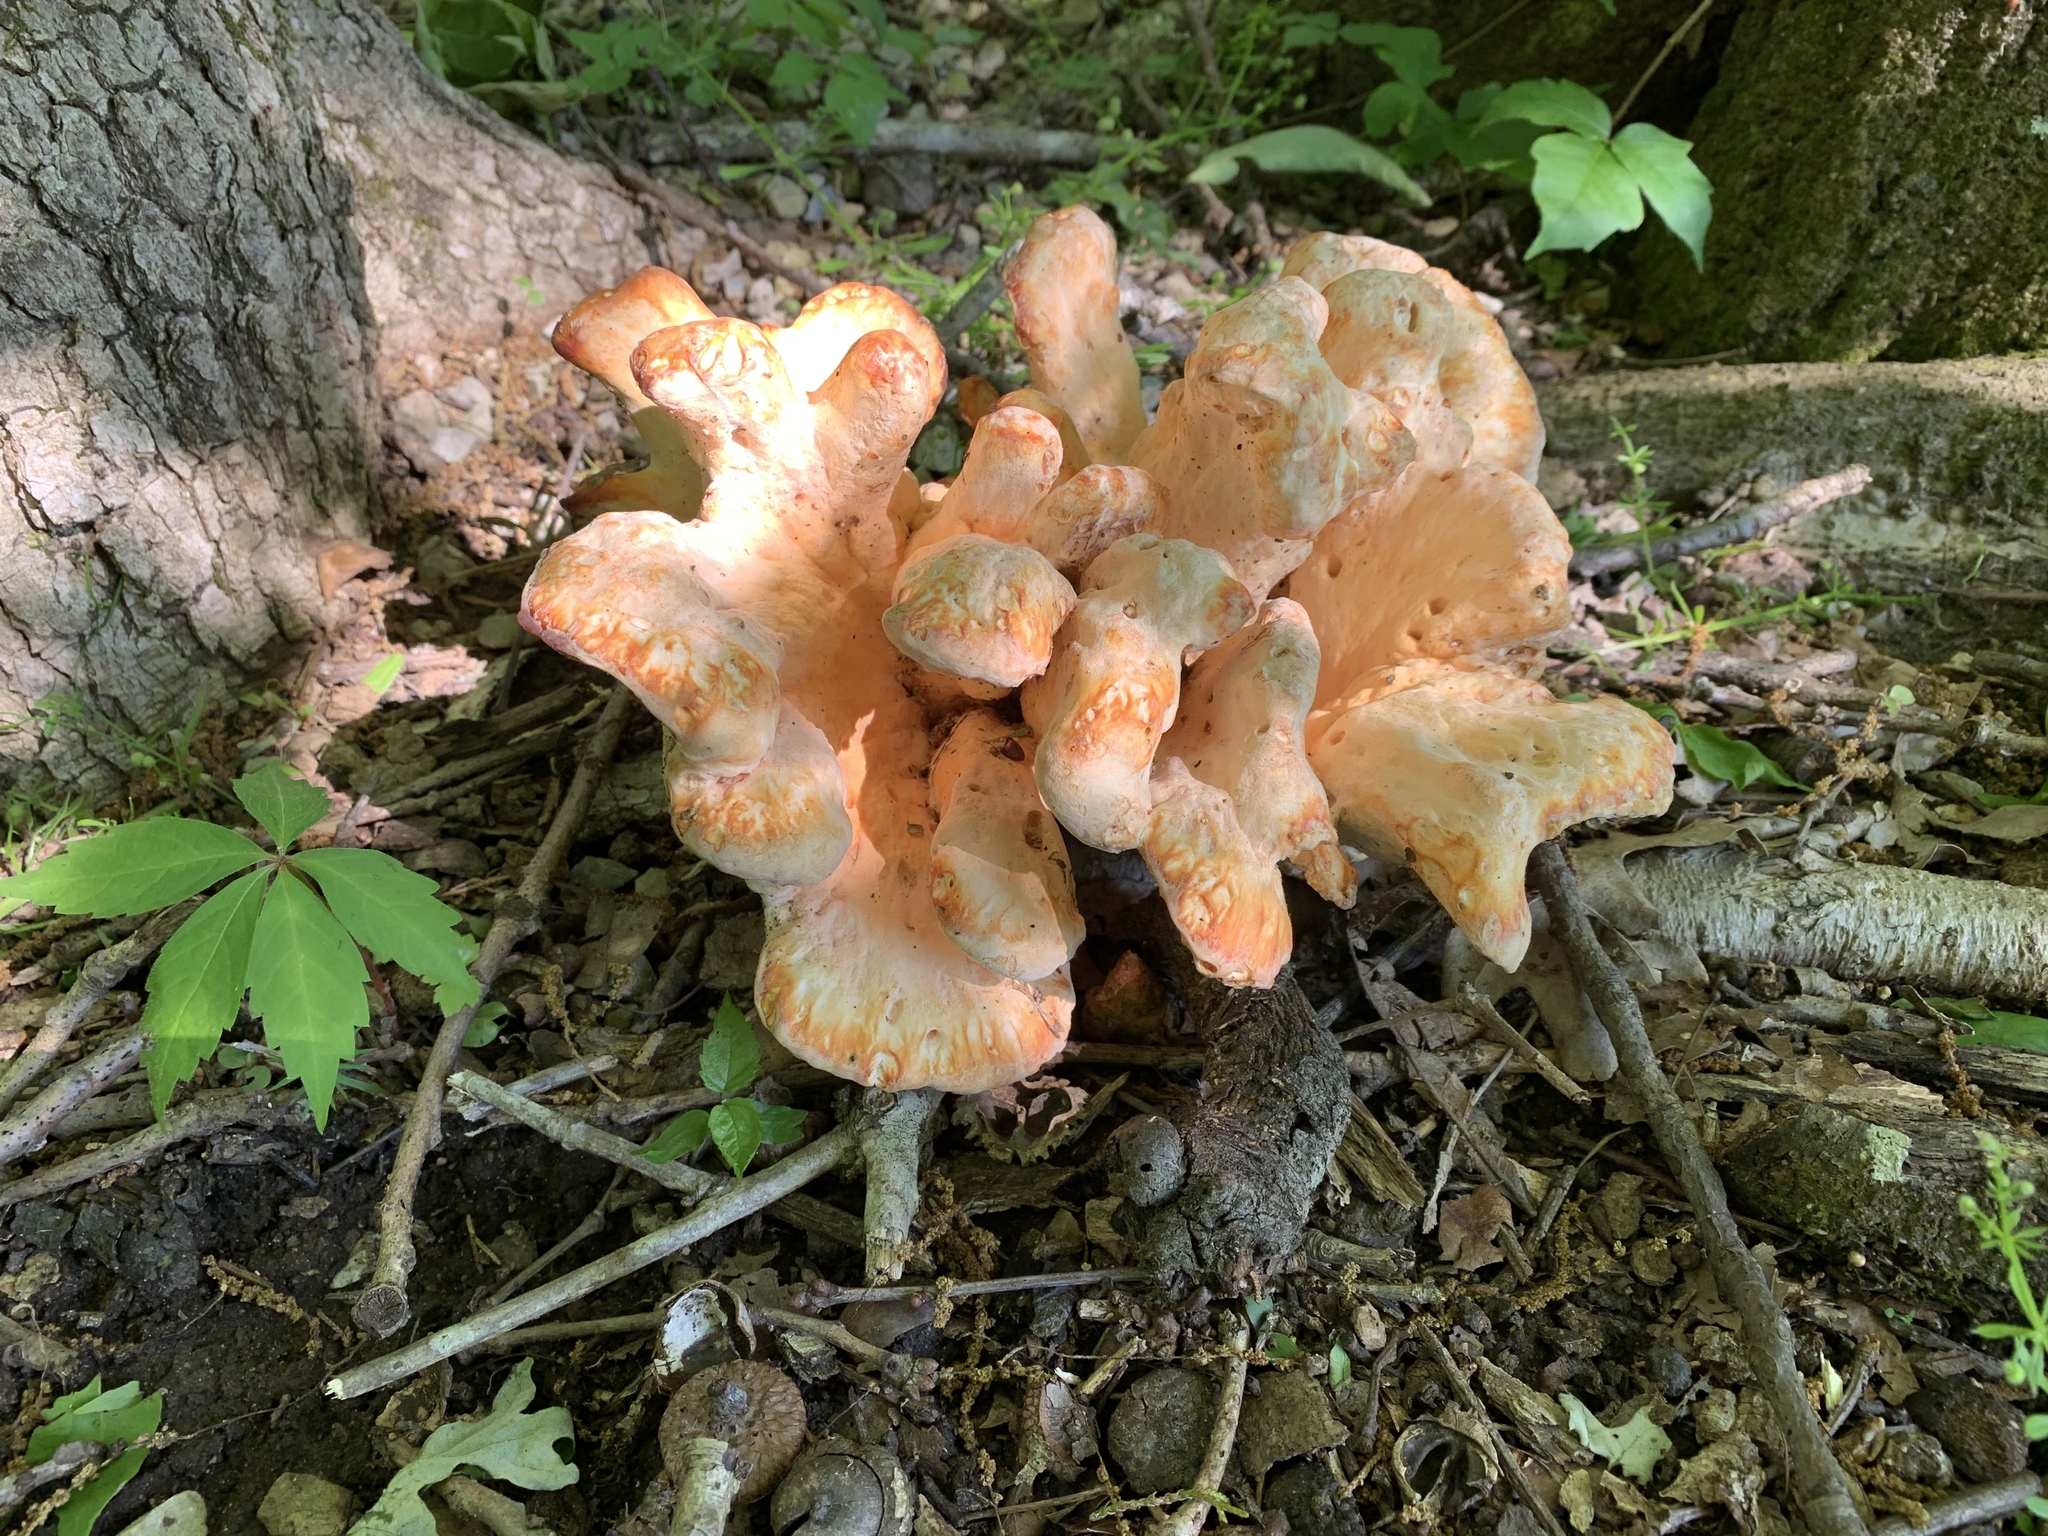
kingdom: Fungi
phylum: Basidiomycota
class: Agaricomycetes
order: Polyporales
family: Laetiporaceae
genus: Laetiporus
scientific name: Laetiporus sulphureus
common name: Chicken of the woods
